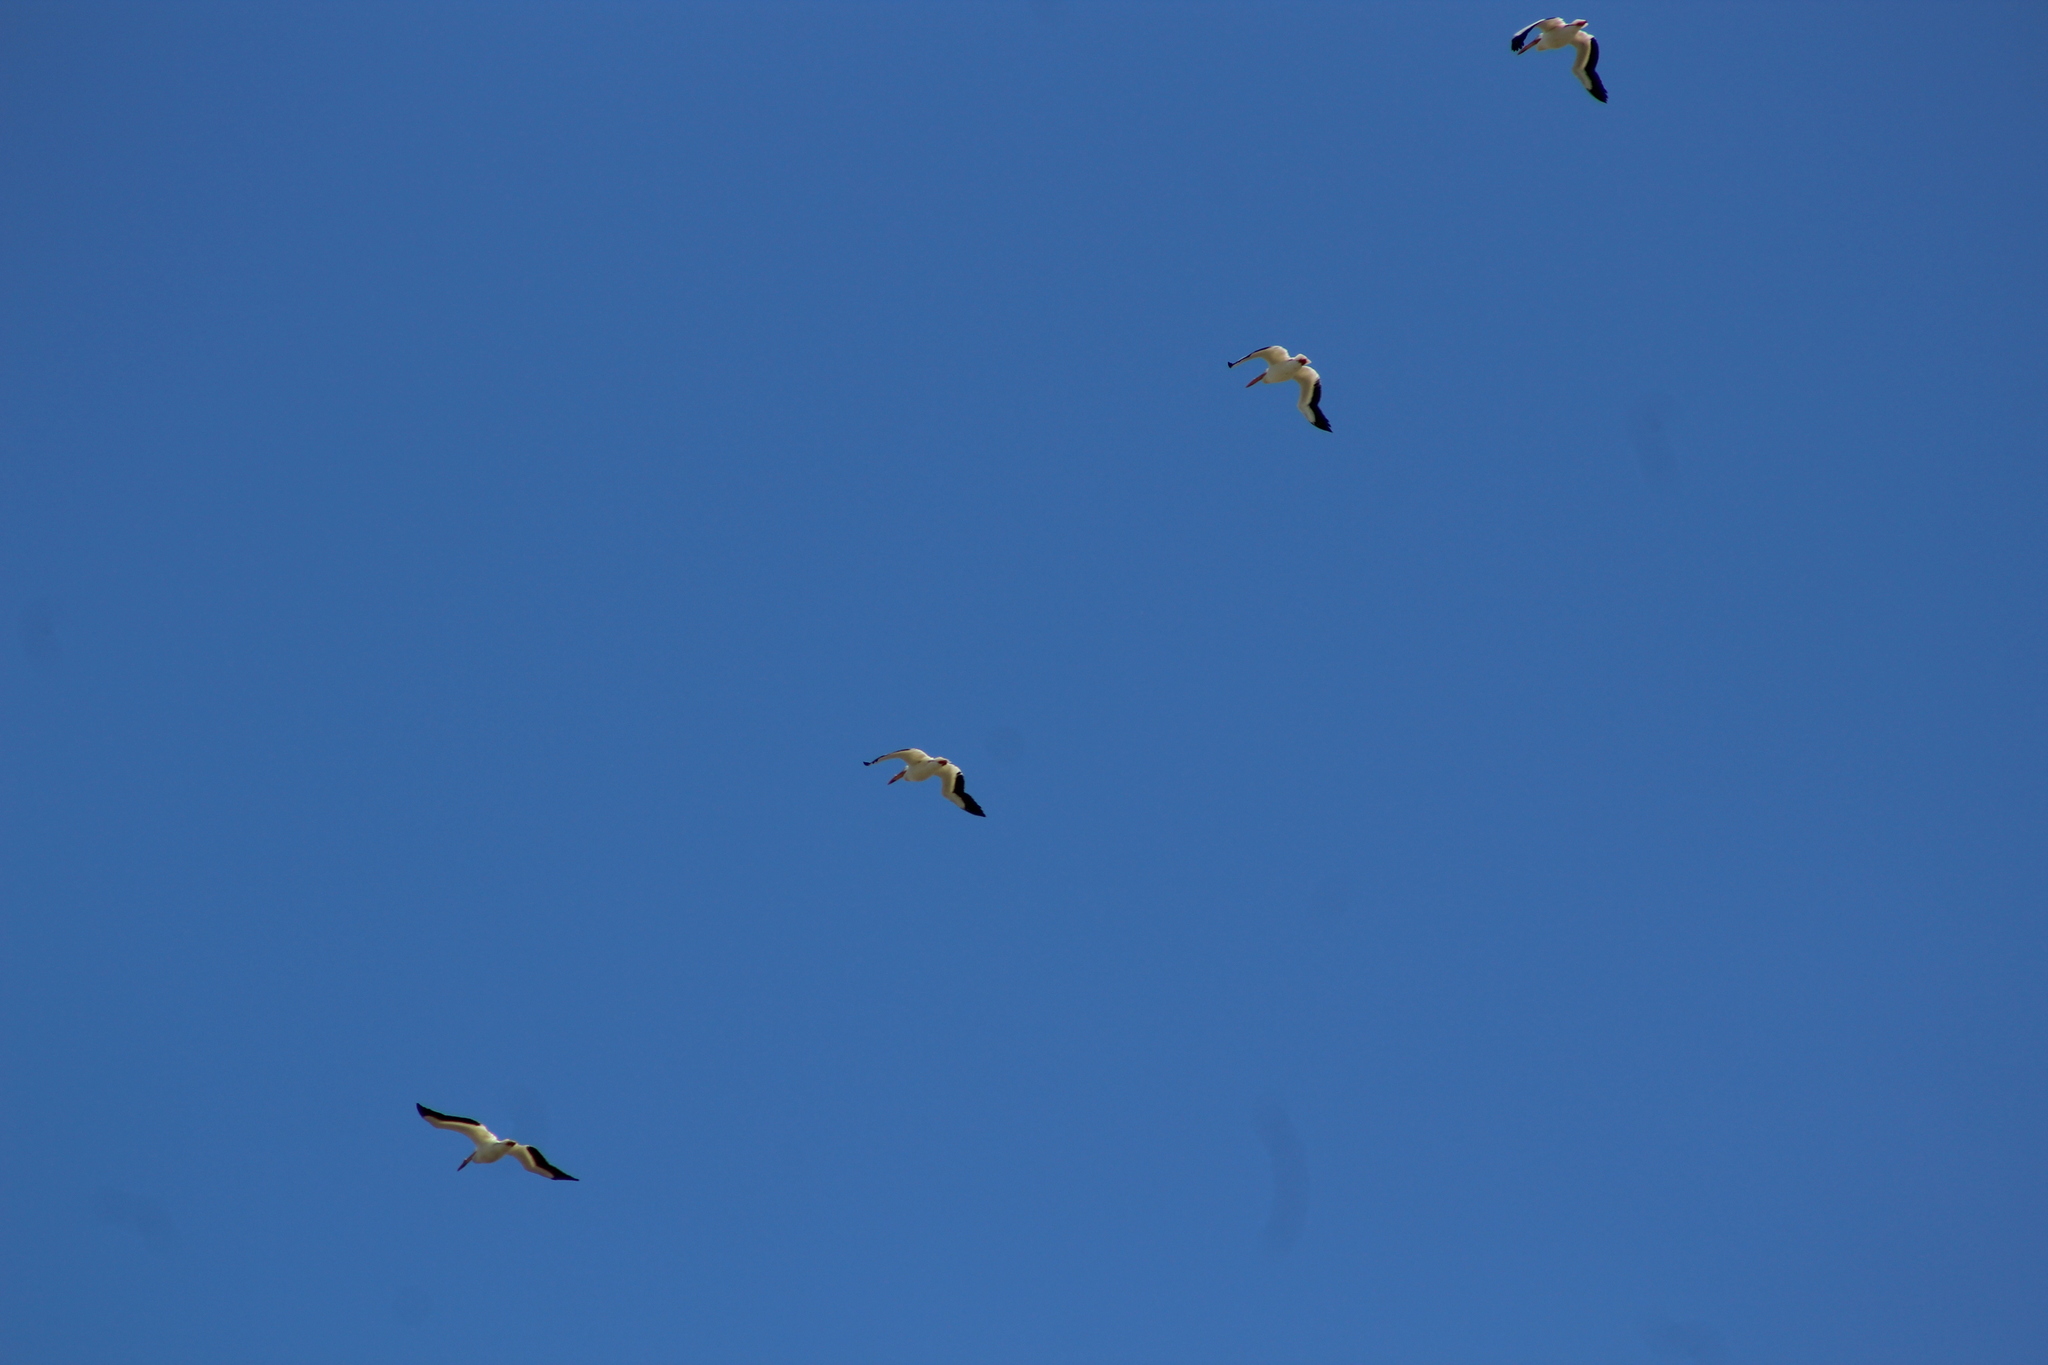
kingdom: Animalia
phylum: Chordata
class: Aves
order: Pelecaniformes
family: Pelecanidae
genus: Pelecanus
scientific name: Pelecanus erythrorhynchos
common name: American white pelican
